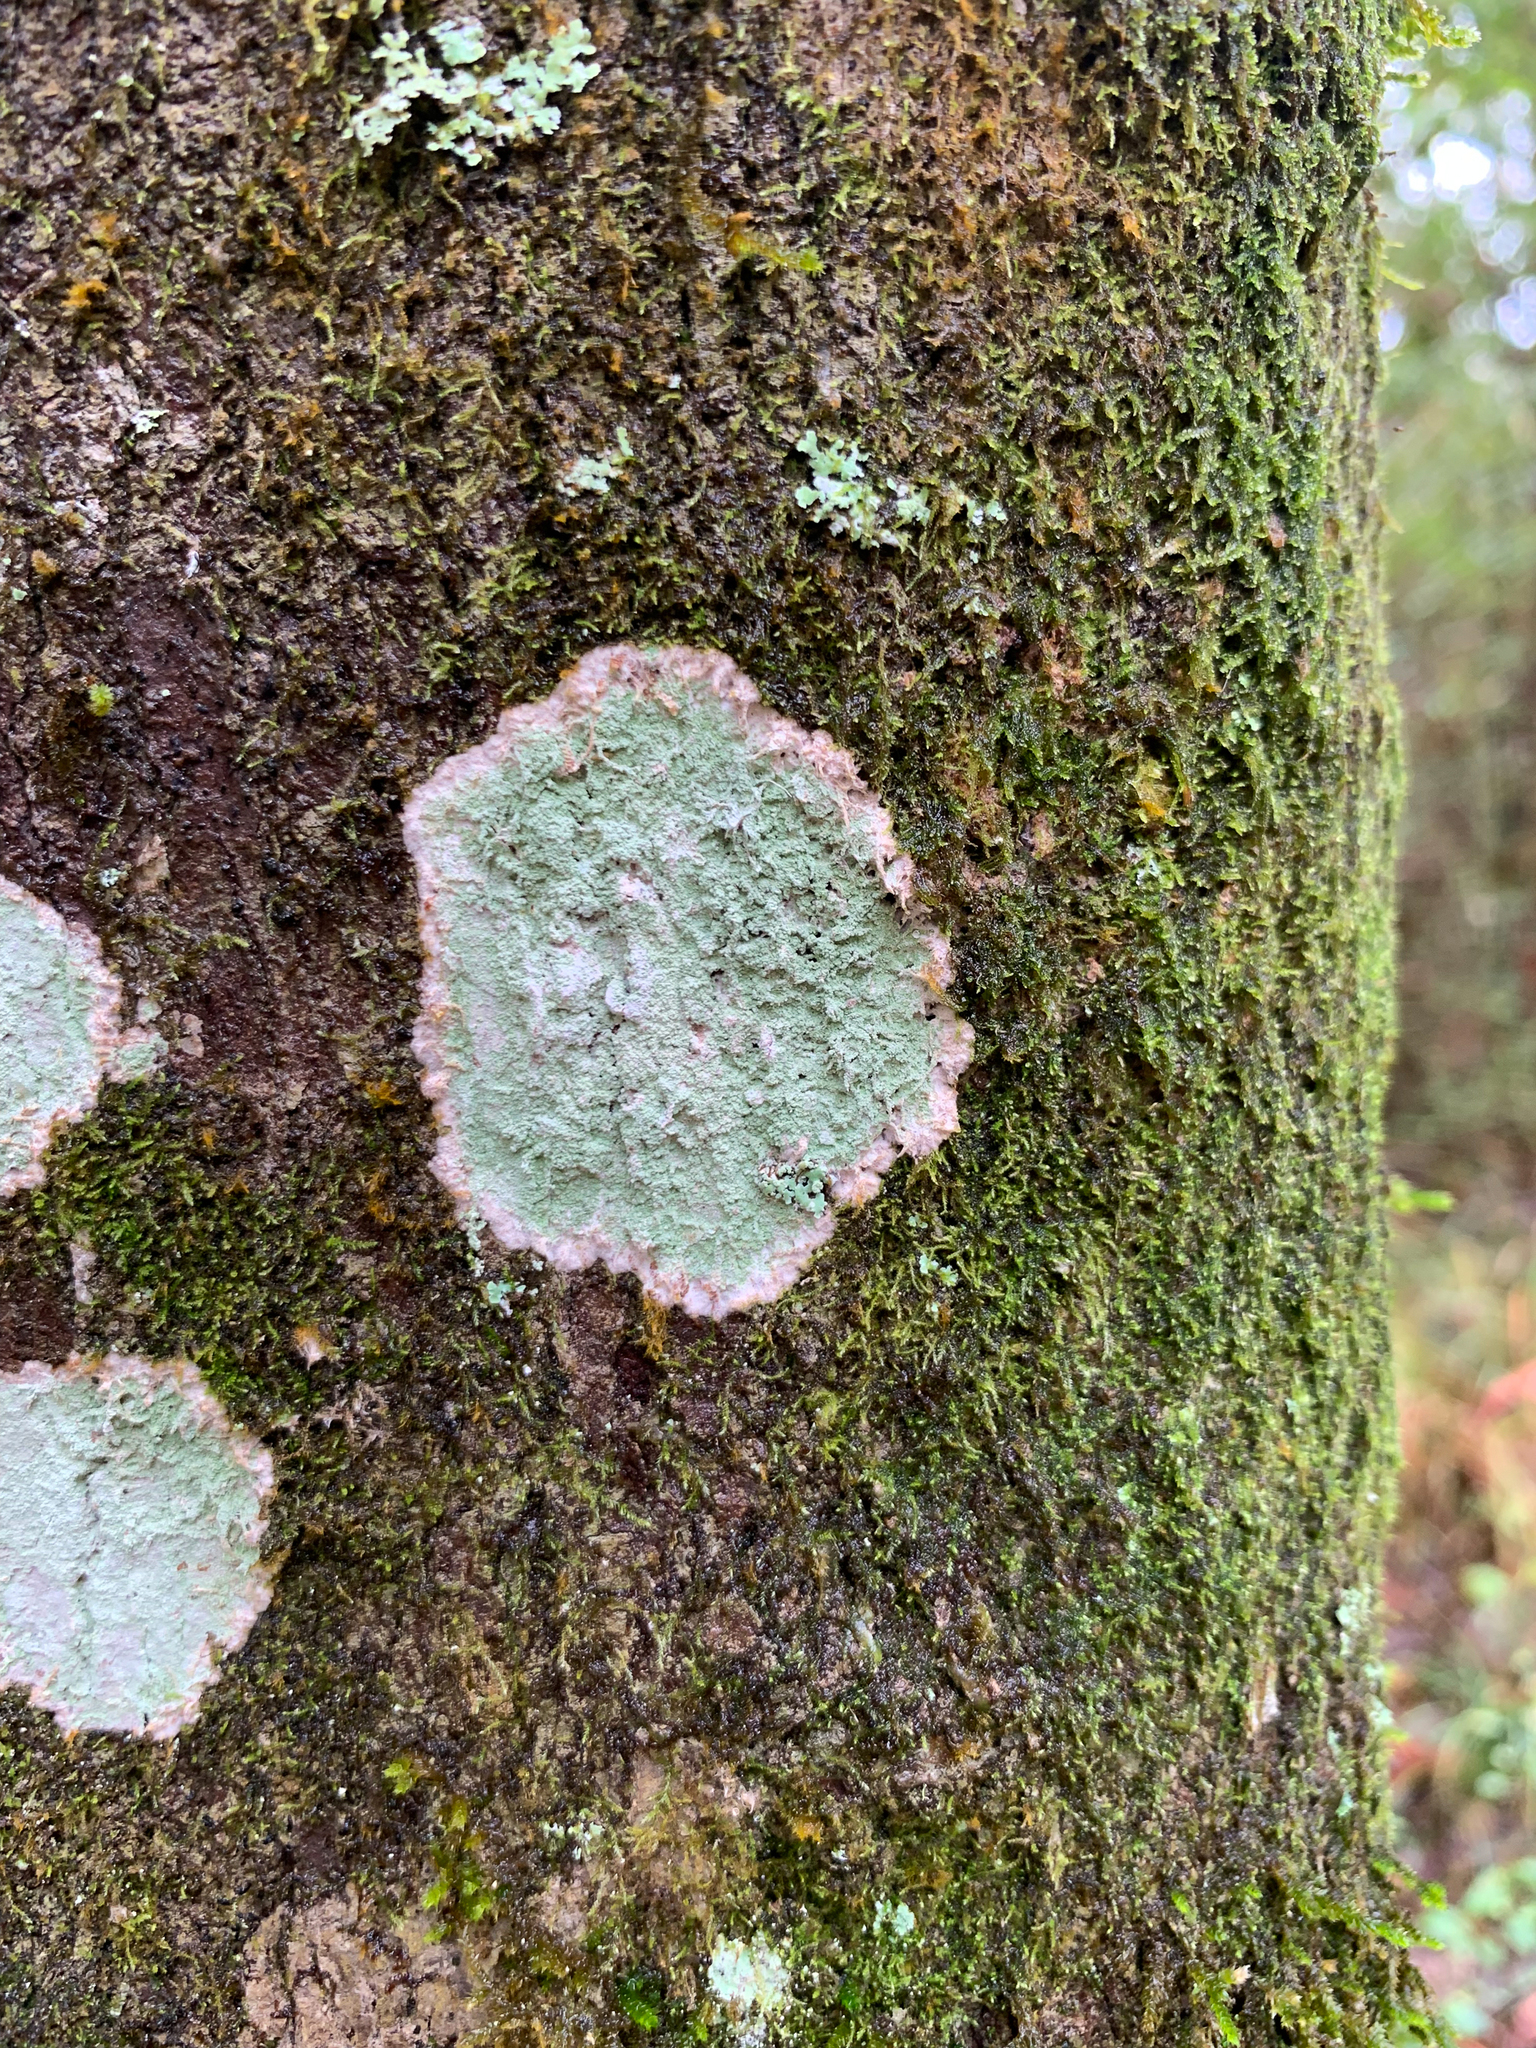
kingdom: Fungi
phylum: Ascomycota
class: Arthoniomycetes
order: Arthoniales
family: Arthoniaceae
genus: Herpothallon
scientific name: Herpothallon rubrocinctum
